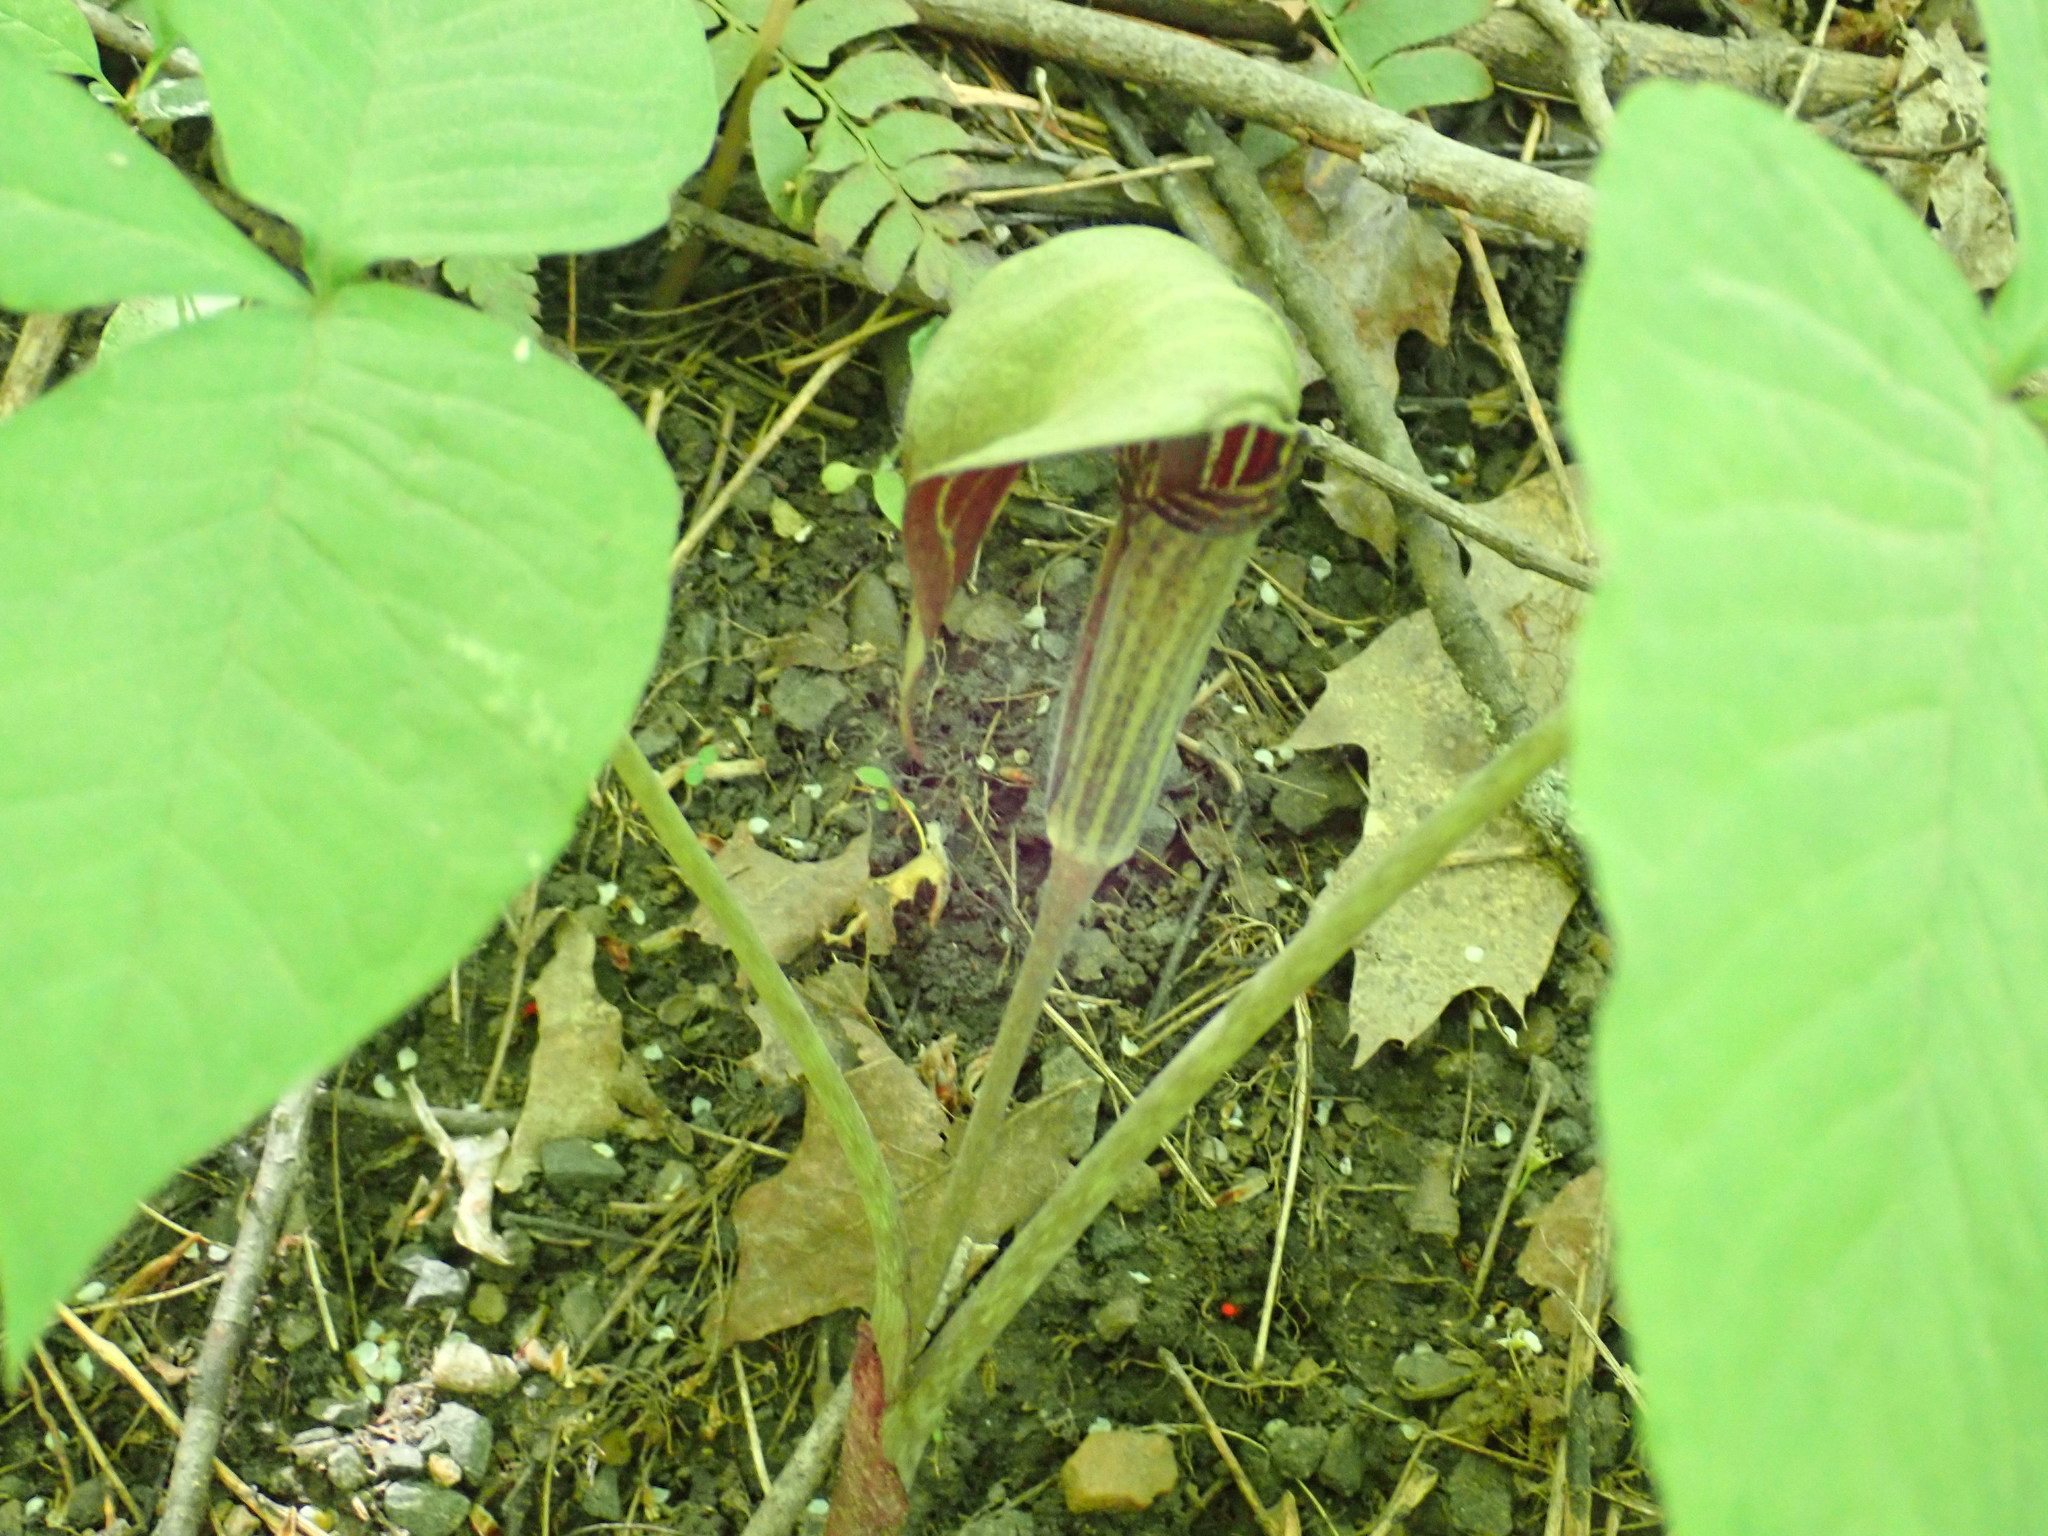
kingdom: Plantae
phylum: Tracheophyta
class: Liliopsida
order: Alismatales
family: Araceae
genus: Arisaema
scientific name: Arisaema triphyllum
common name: Jack-in-the-pulpit
